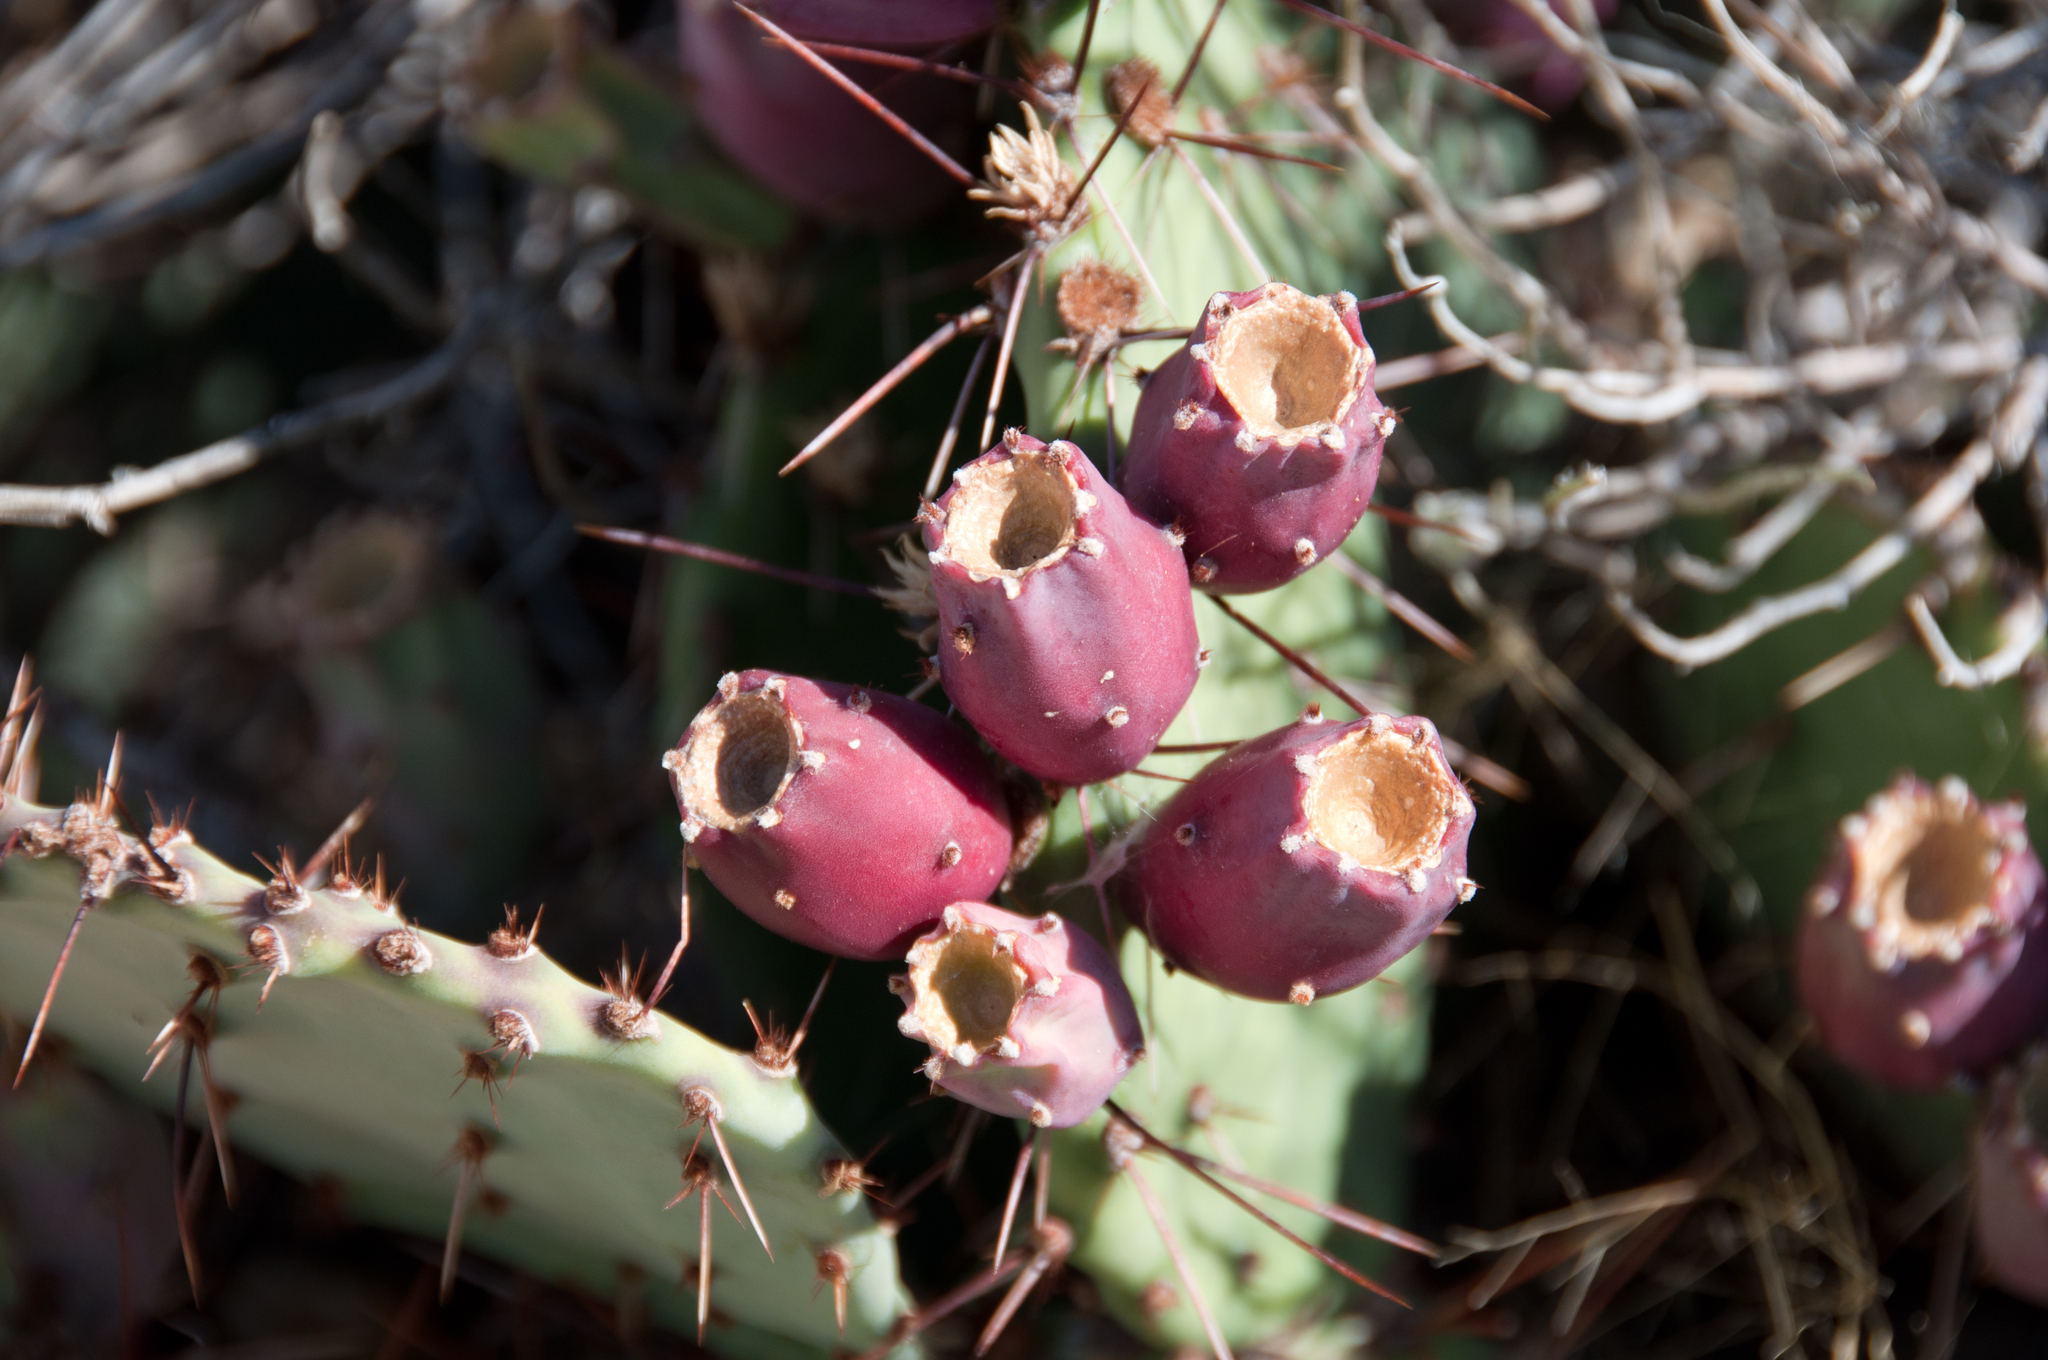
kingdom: Plantae
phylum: Tracheophyta
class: Magnoliopsida
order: Caryophyllales
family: Cactaceae
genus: Opuntia
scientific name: Opuntia phaeacantha
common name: New mexico prickly-pear
